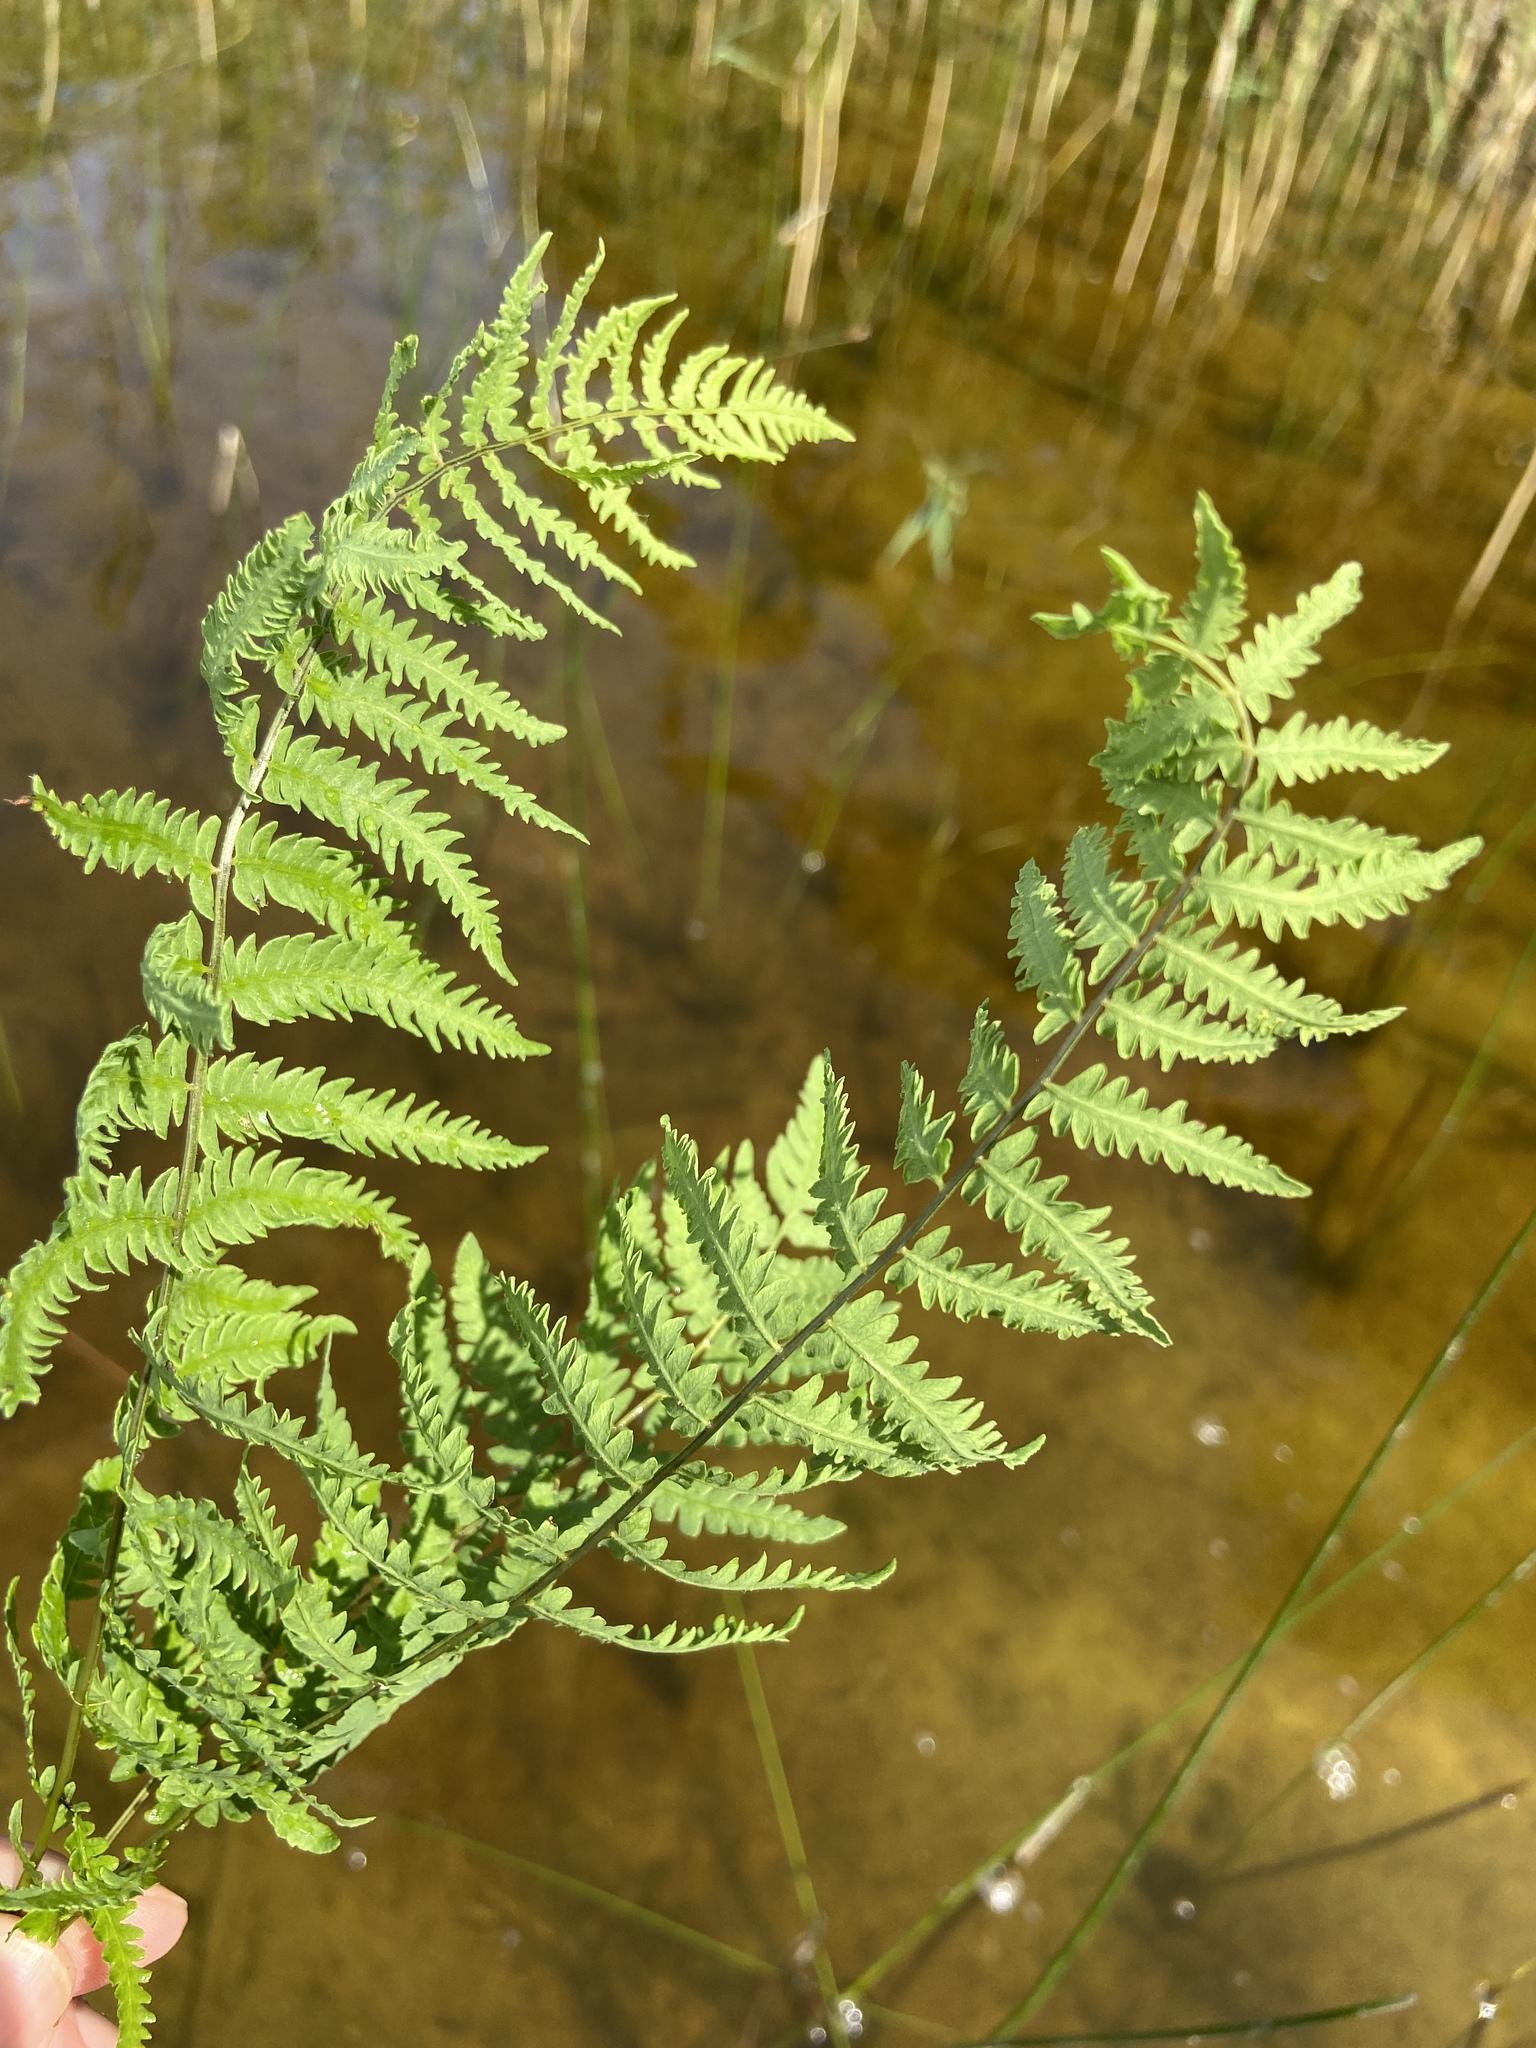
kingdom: Plantae
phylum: Tracheophyta
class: Polypodiopsida
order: Polypodiales
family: Thelypteridaceae
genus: Thelypteris
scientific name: Thelypteris palustris
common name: Marsh fern
